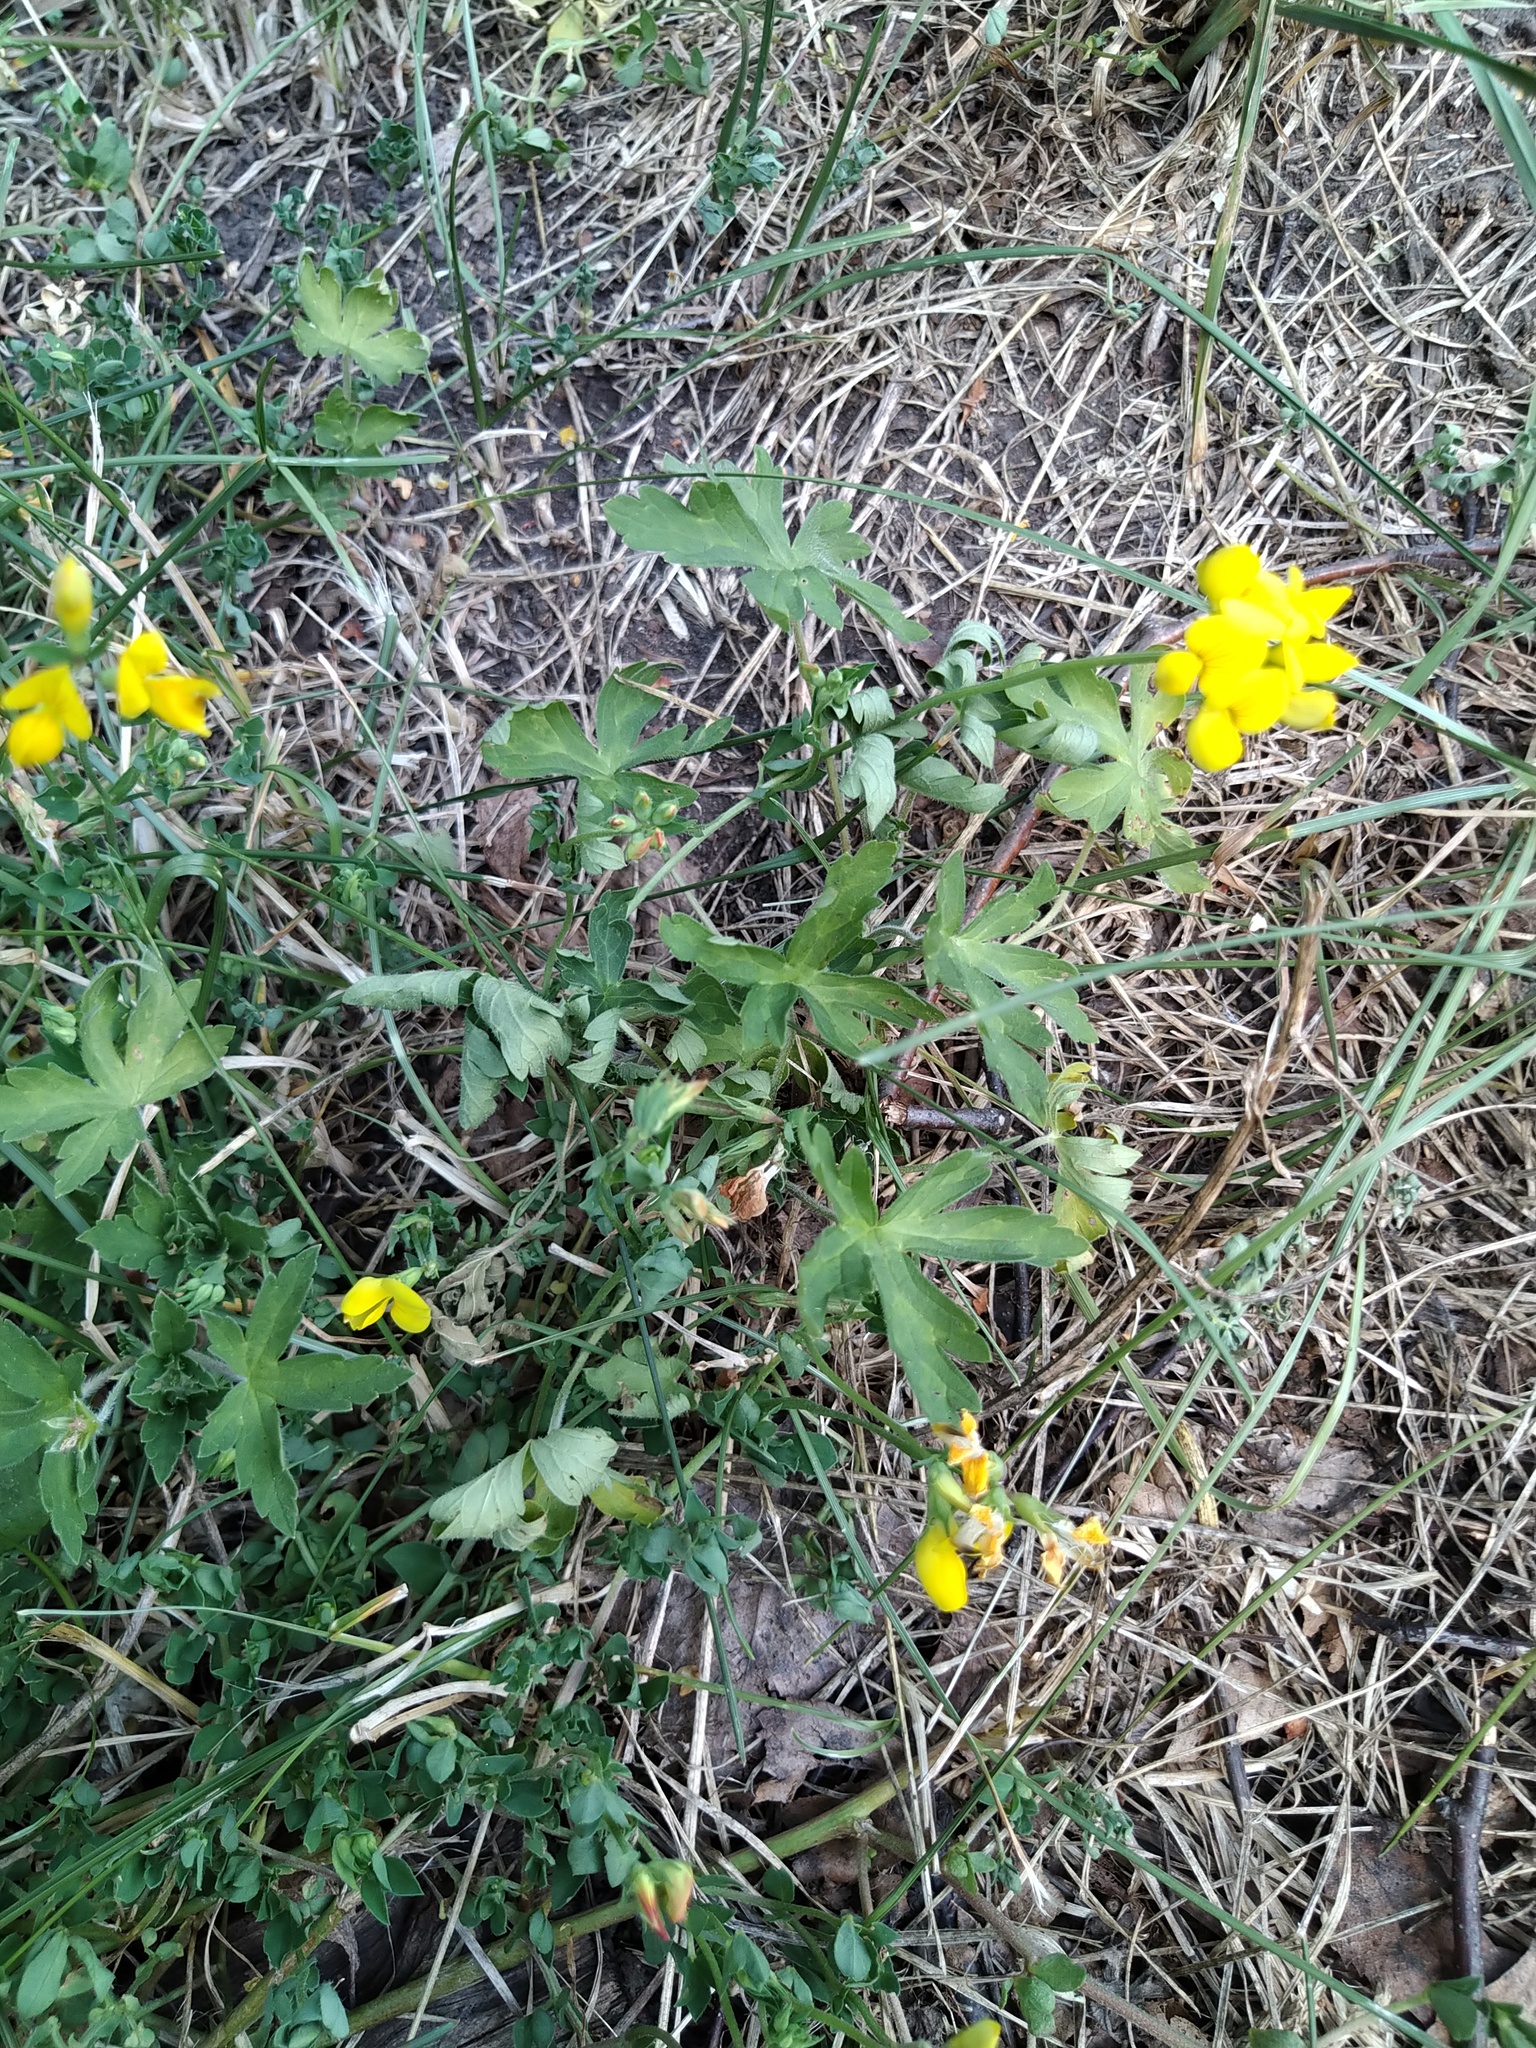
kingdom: Plantae
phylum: Tracheophyta
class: Magnoliopsida
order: Fabales
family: Fabaceae
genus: Lotus
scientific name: Lotus corniculatus
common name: Common bird's-foot-trefoil
